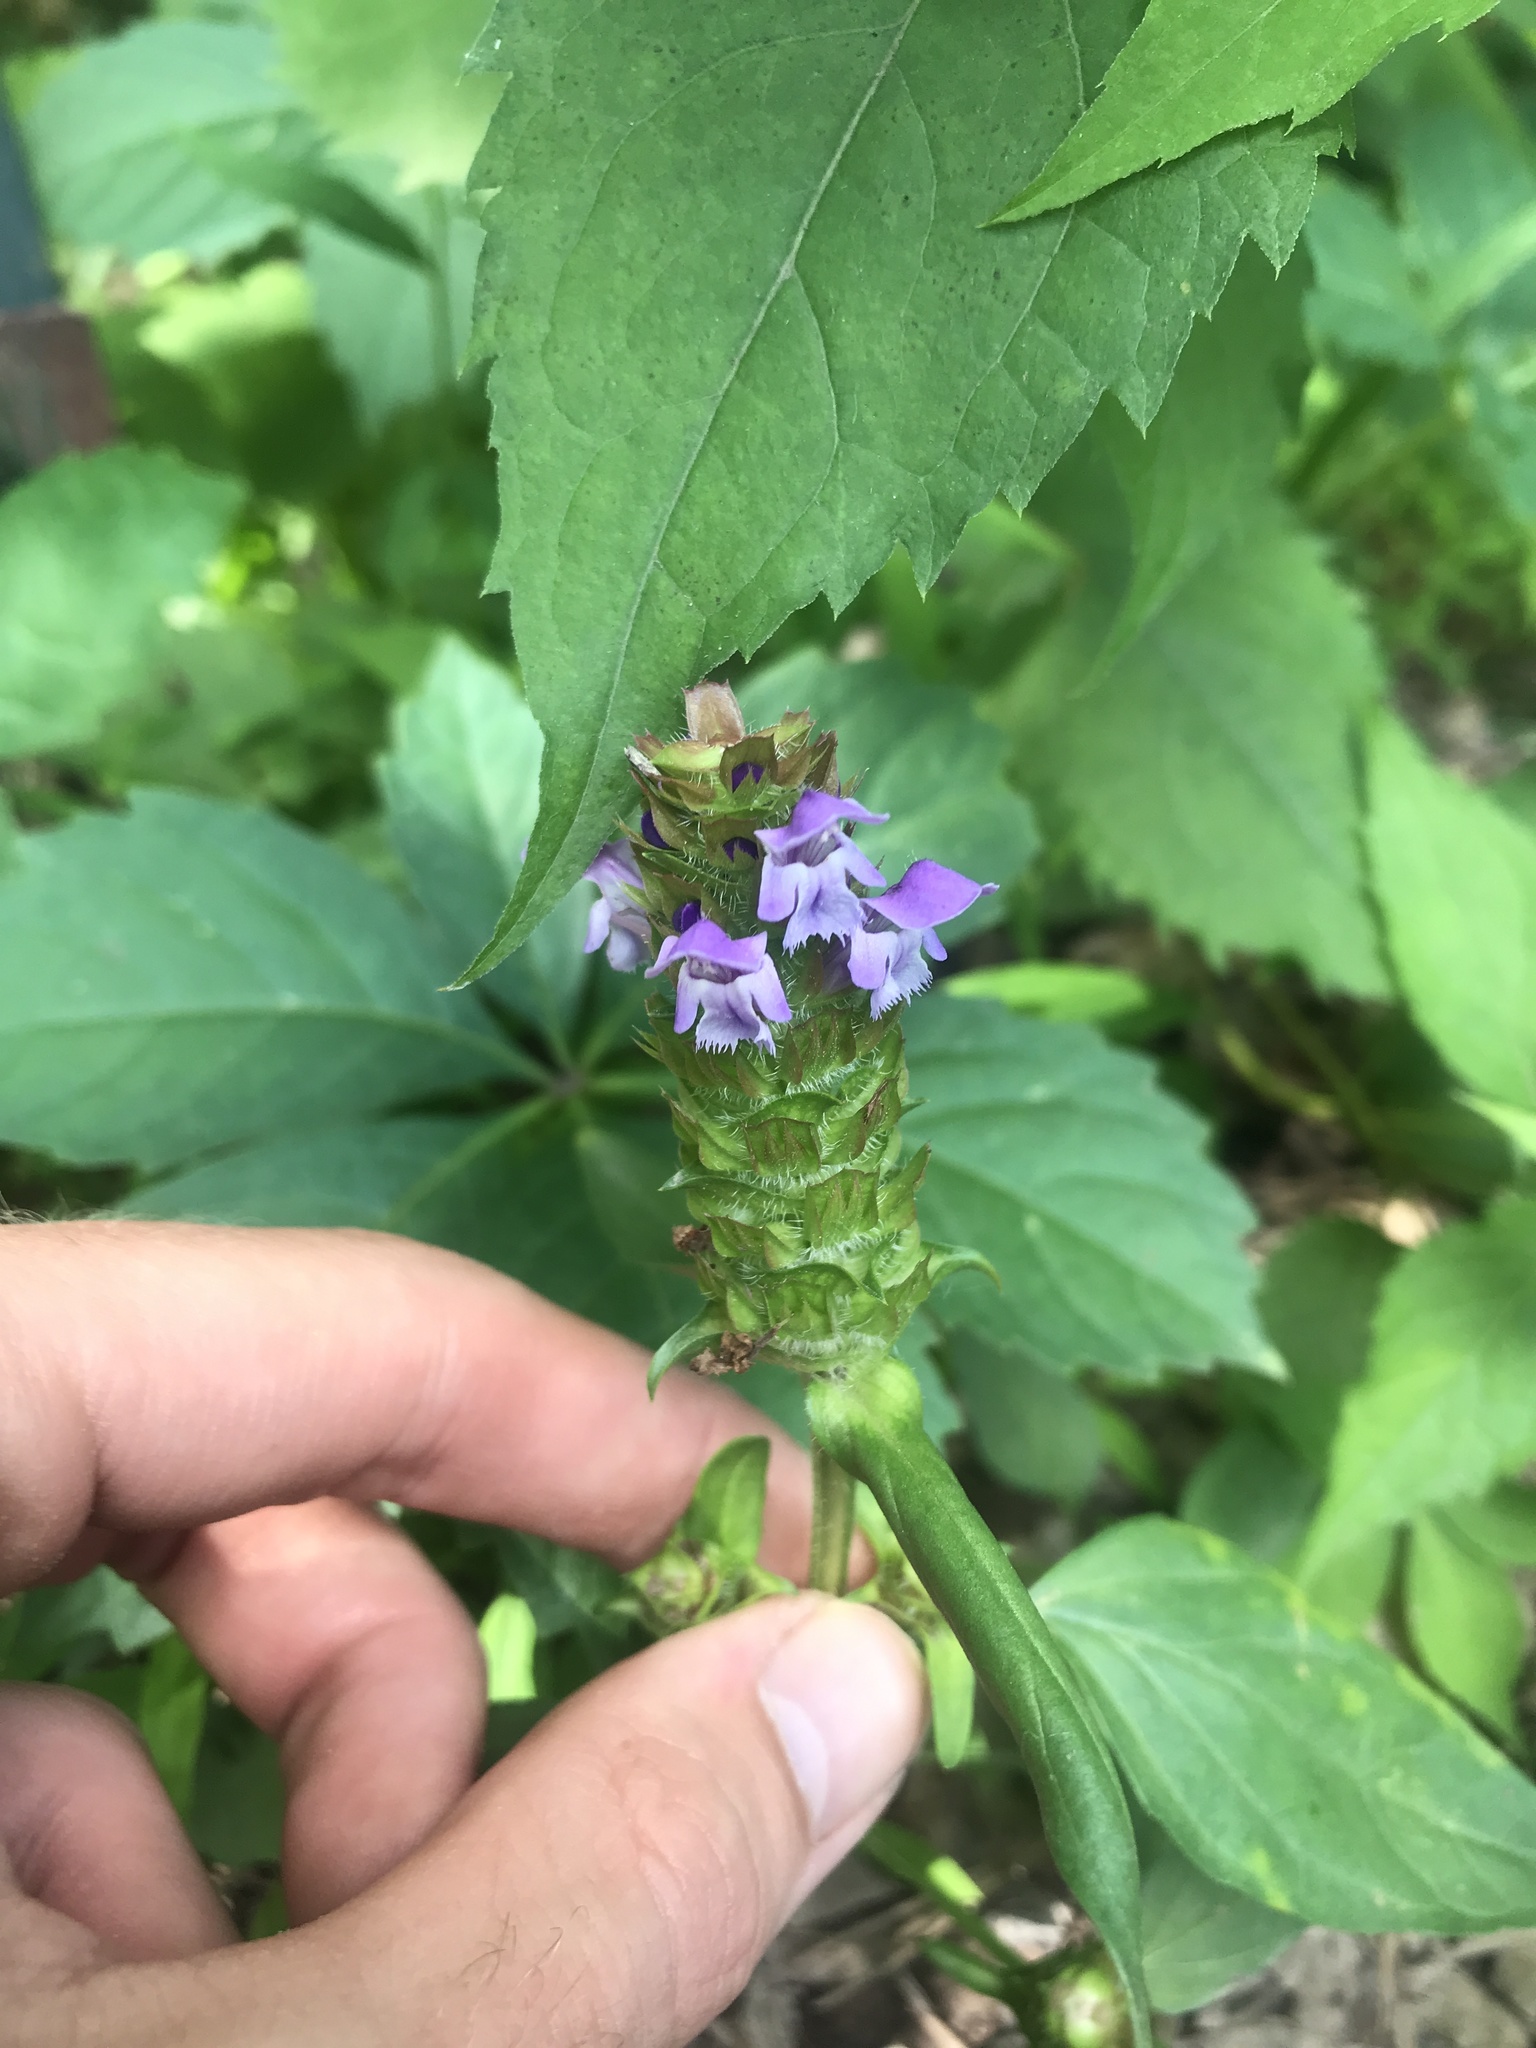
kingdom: Plantae
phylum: Tracheophyta
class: Magnoliopsida
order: Lamiales
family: Lamiaceae
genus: Prunella
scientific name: Prunella vulgaris
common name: Heal-all
